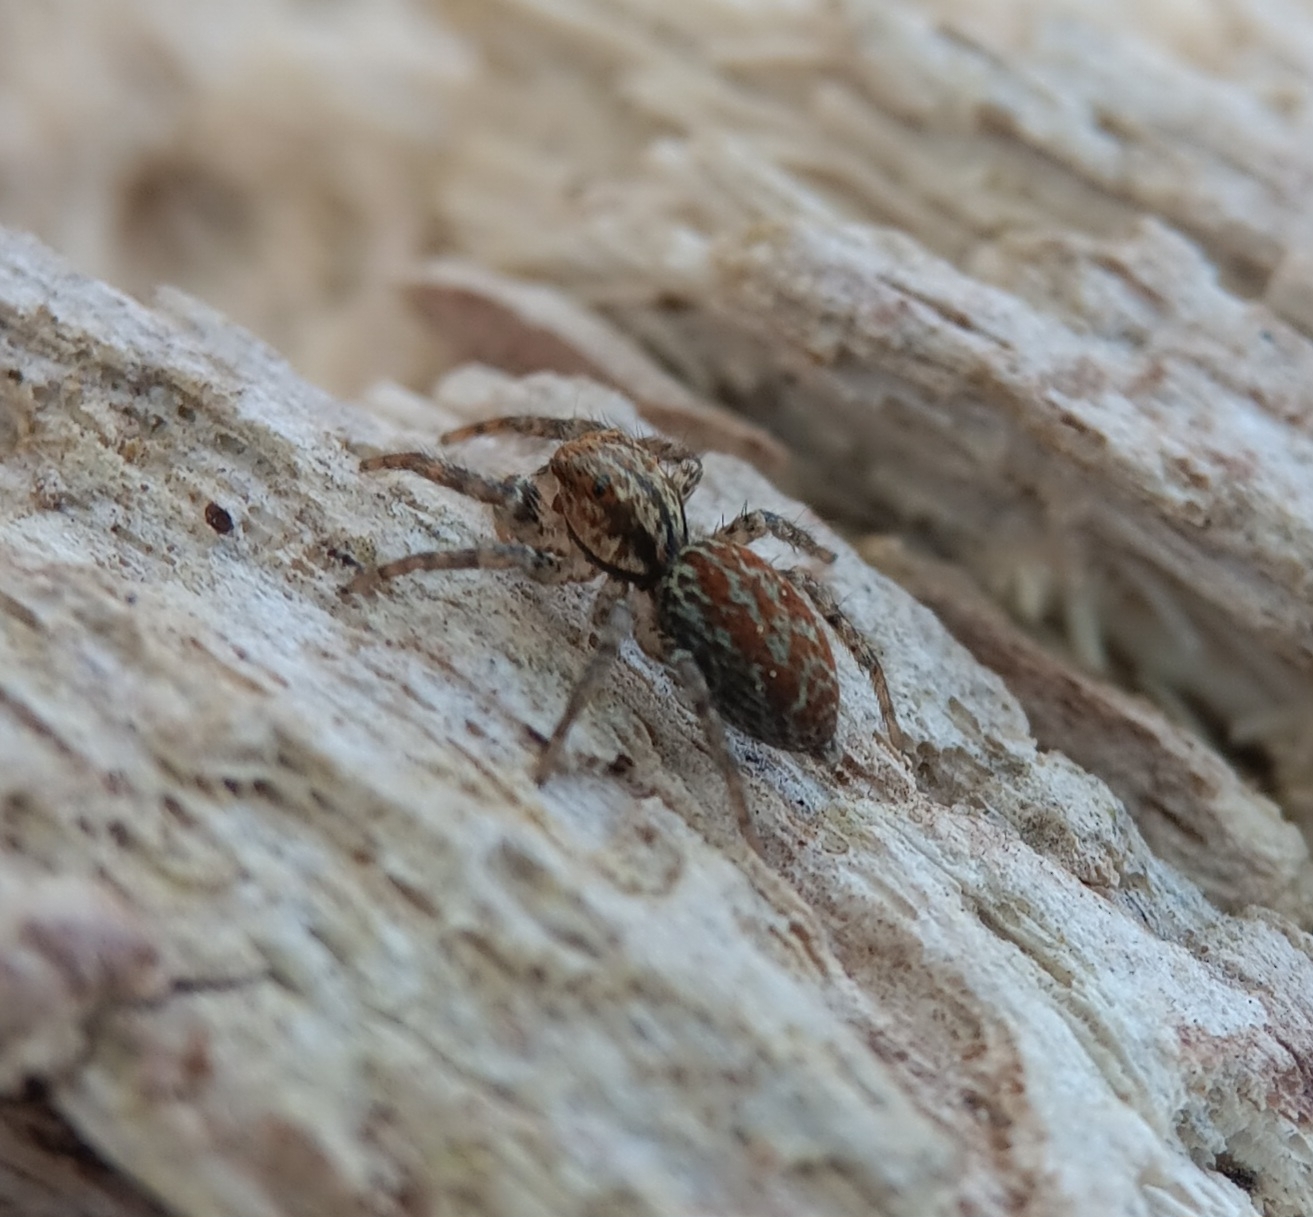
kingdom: Animalia
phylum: Arthropoda
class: Arachnida
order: Araneae
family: Salticidae
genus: Maevia
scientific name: Maevia inclemens
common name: Dimorphic jumper
